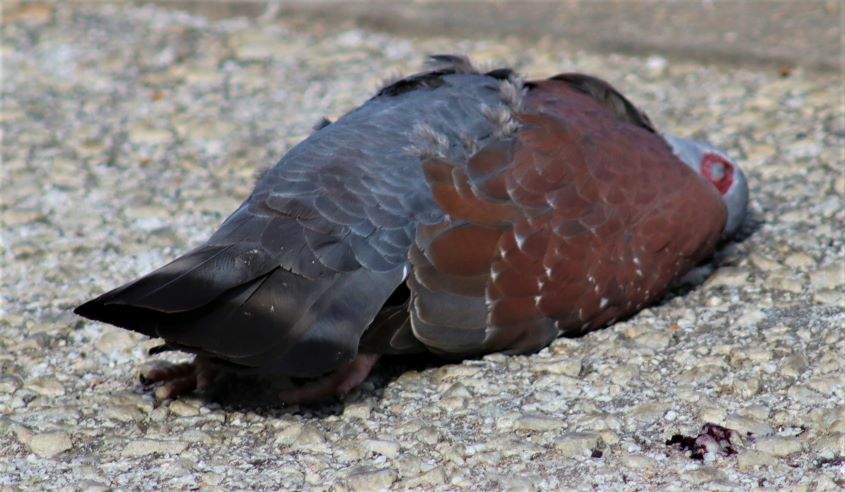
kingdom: Animalia
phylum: Chordata
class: Aves
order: Columbiformes
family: Columbidae
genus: Columba
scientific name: Columba guinea
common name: Speckled pigeon
